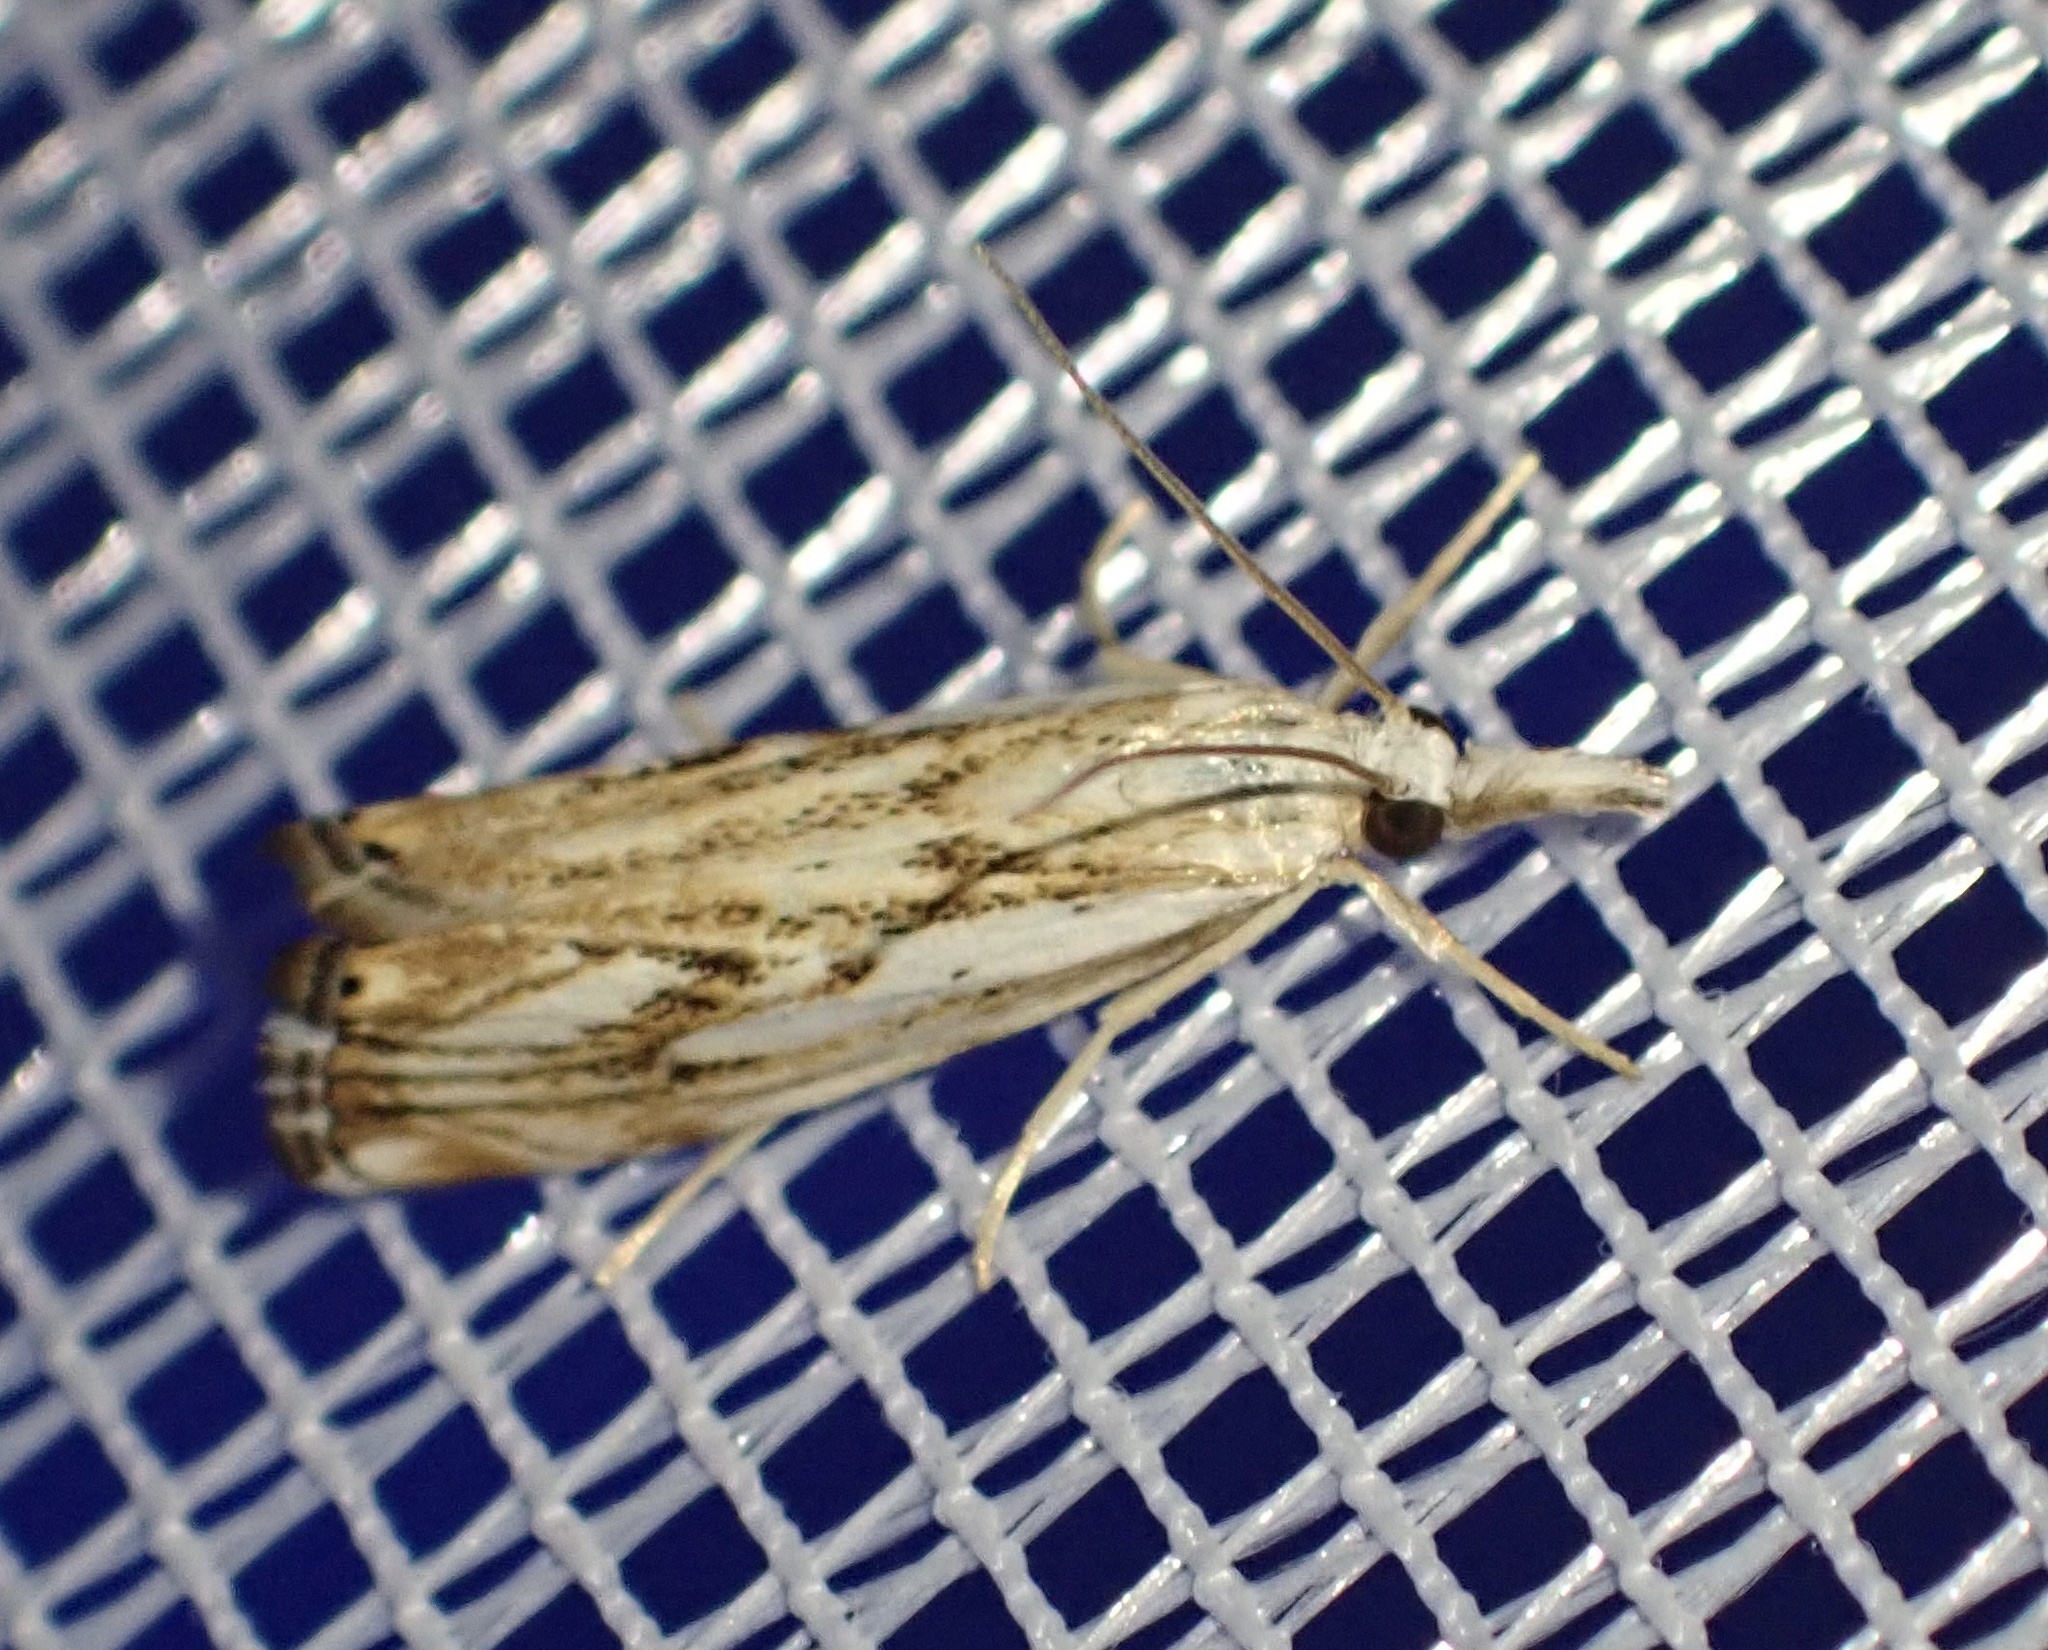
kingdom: Animalia
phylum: Arthropoda
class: Insecta
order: Lepidoptera
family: Crambidae
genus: Catoptria
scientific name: Catoptria falsella
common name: Chequered grass-veneer
